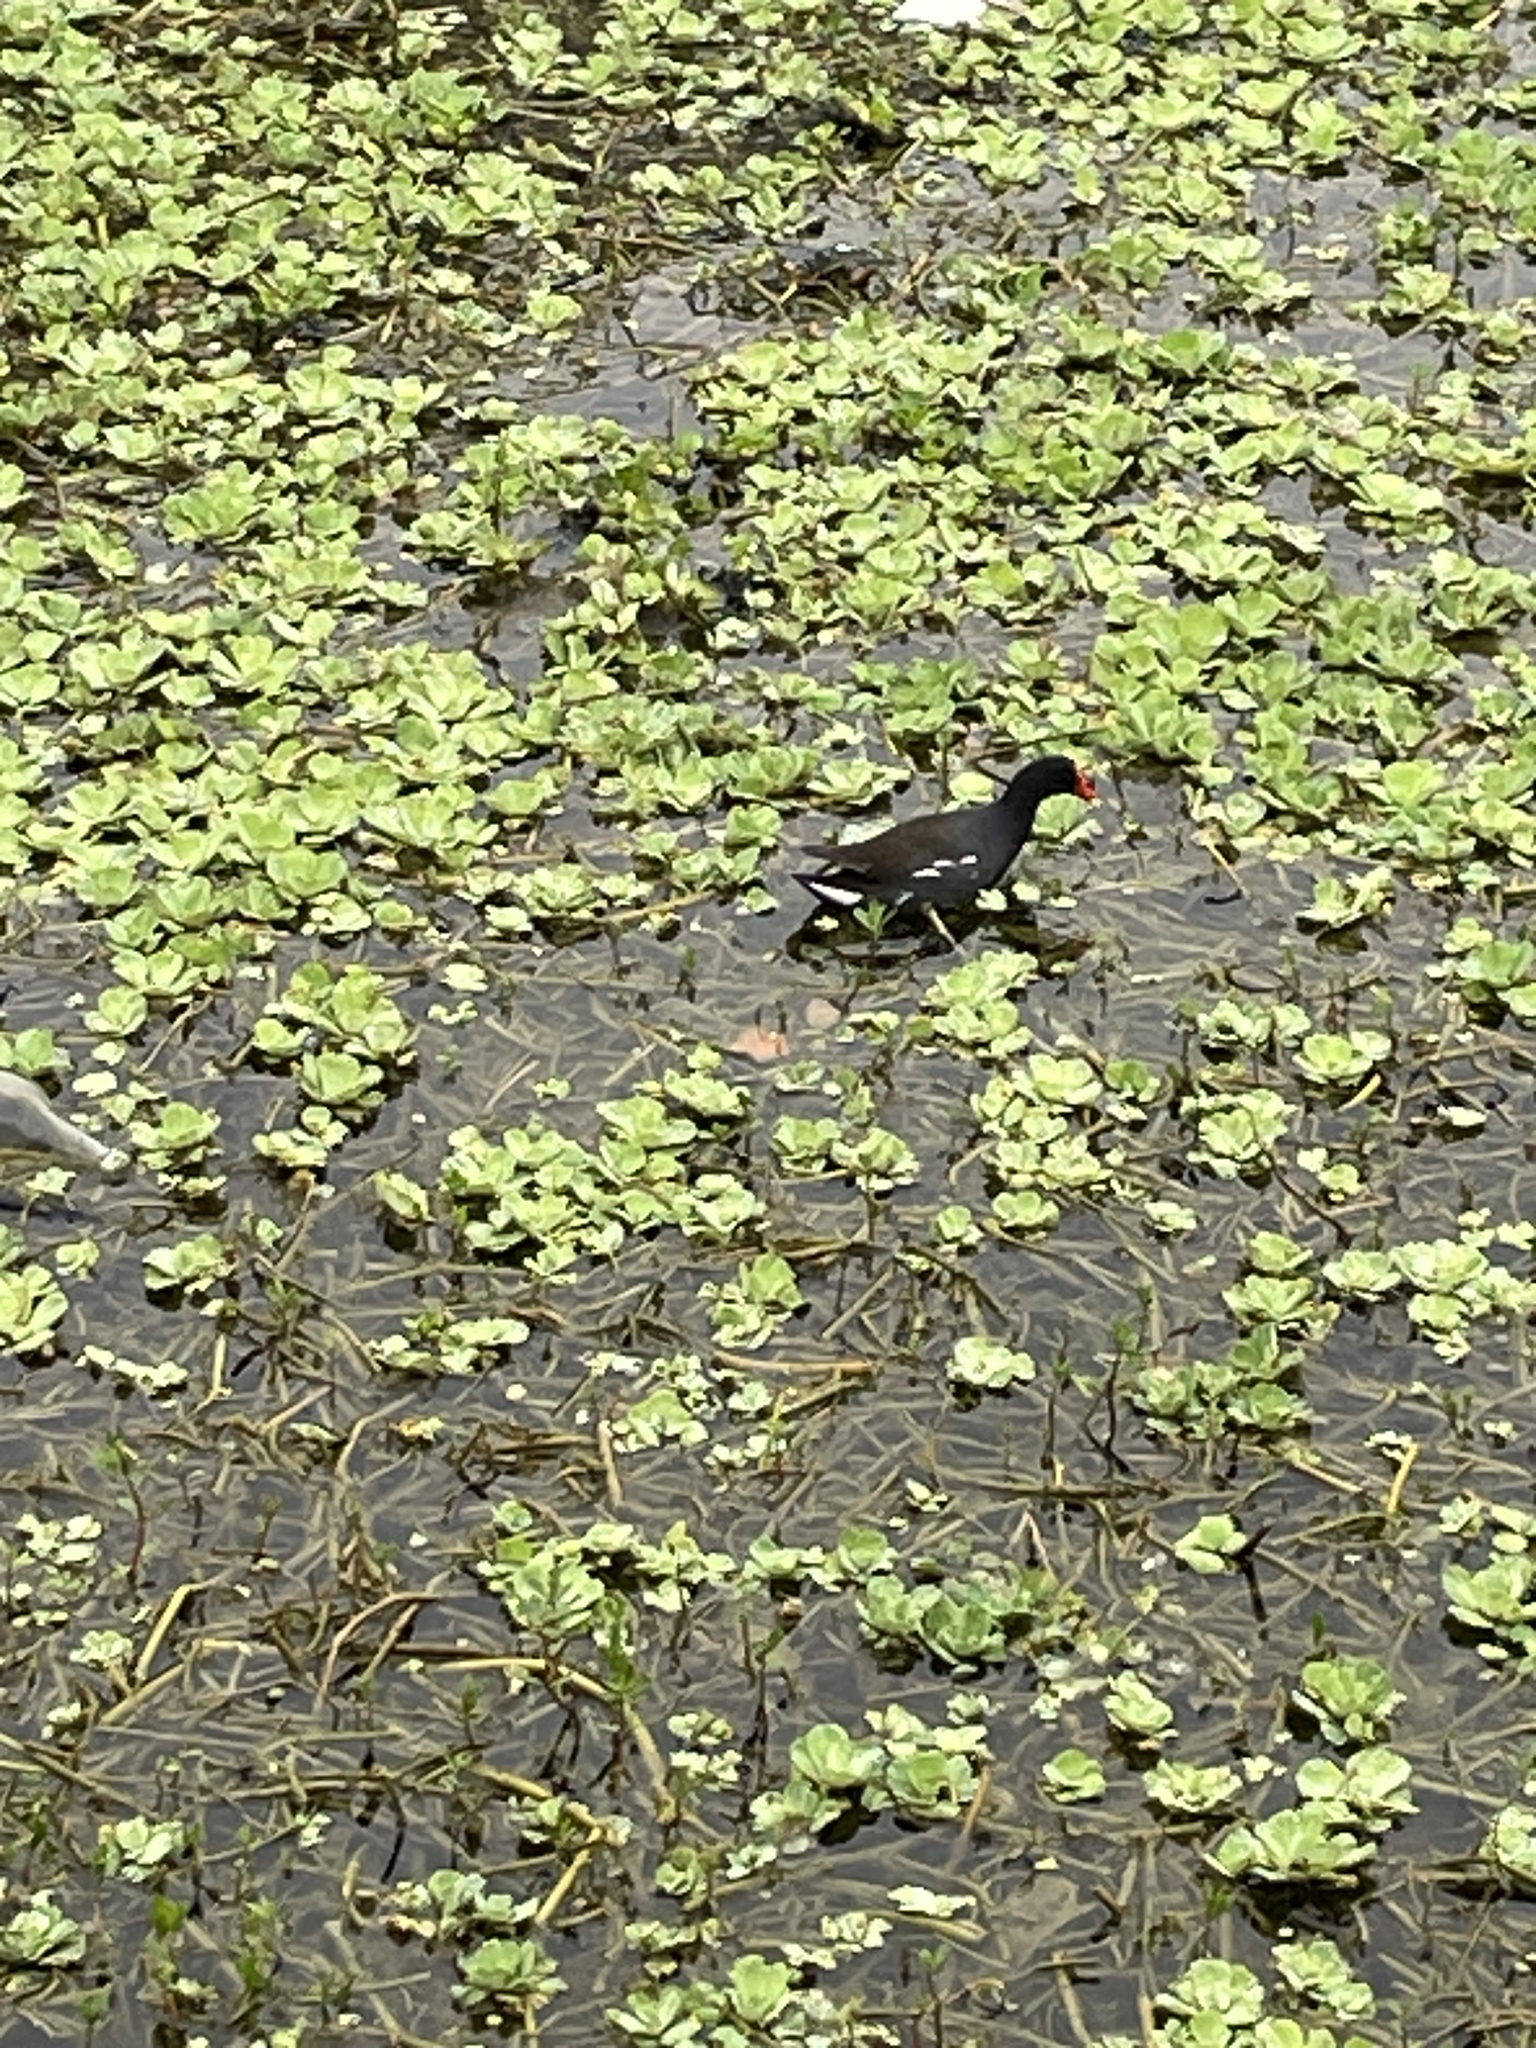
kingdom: Animalia
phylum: Chordata
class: Aves
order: Gruiformes
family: Rallidae
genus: Gallinula
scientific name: Gallinula chloropus
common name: Common moorhen
